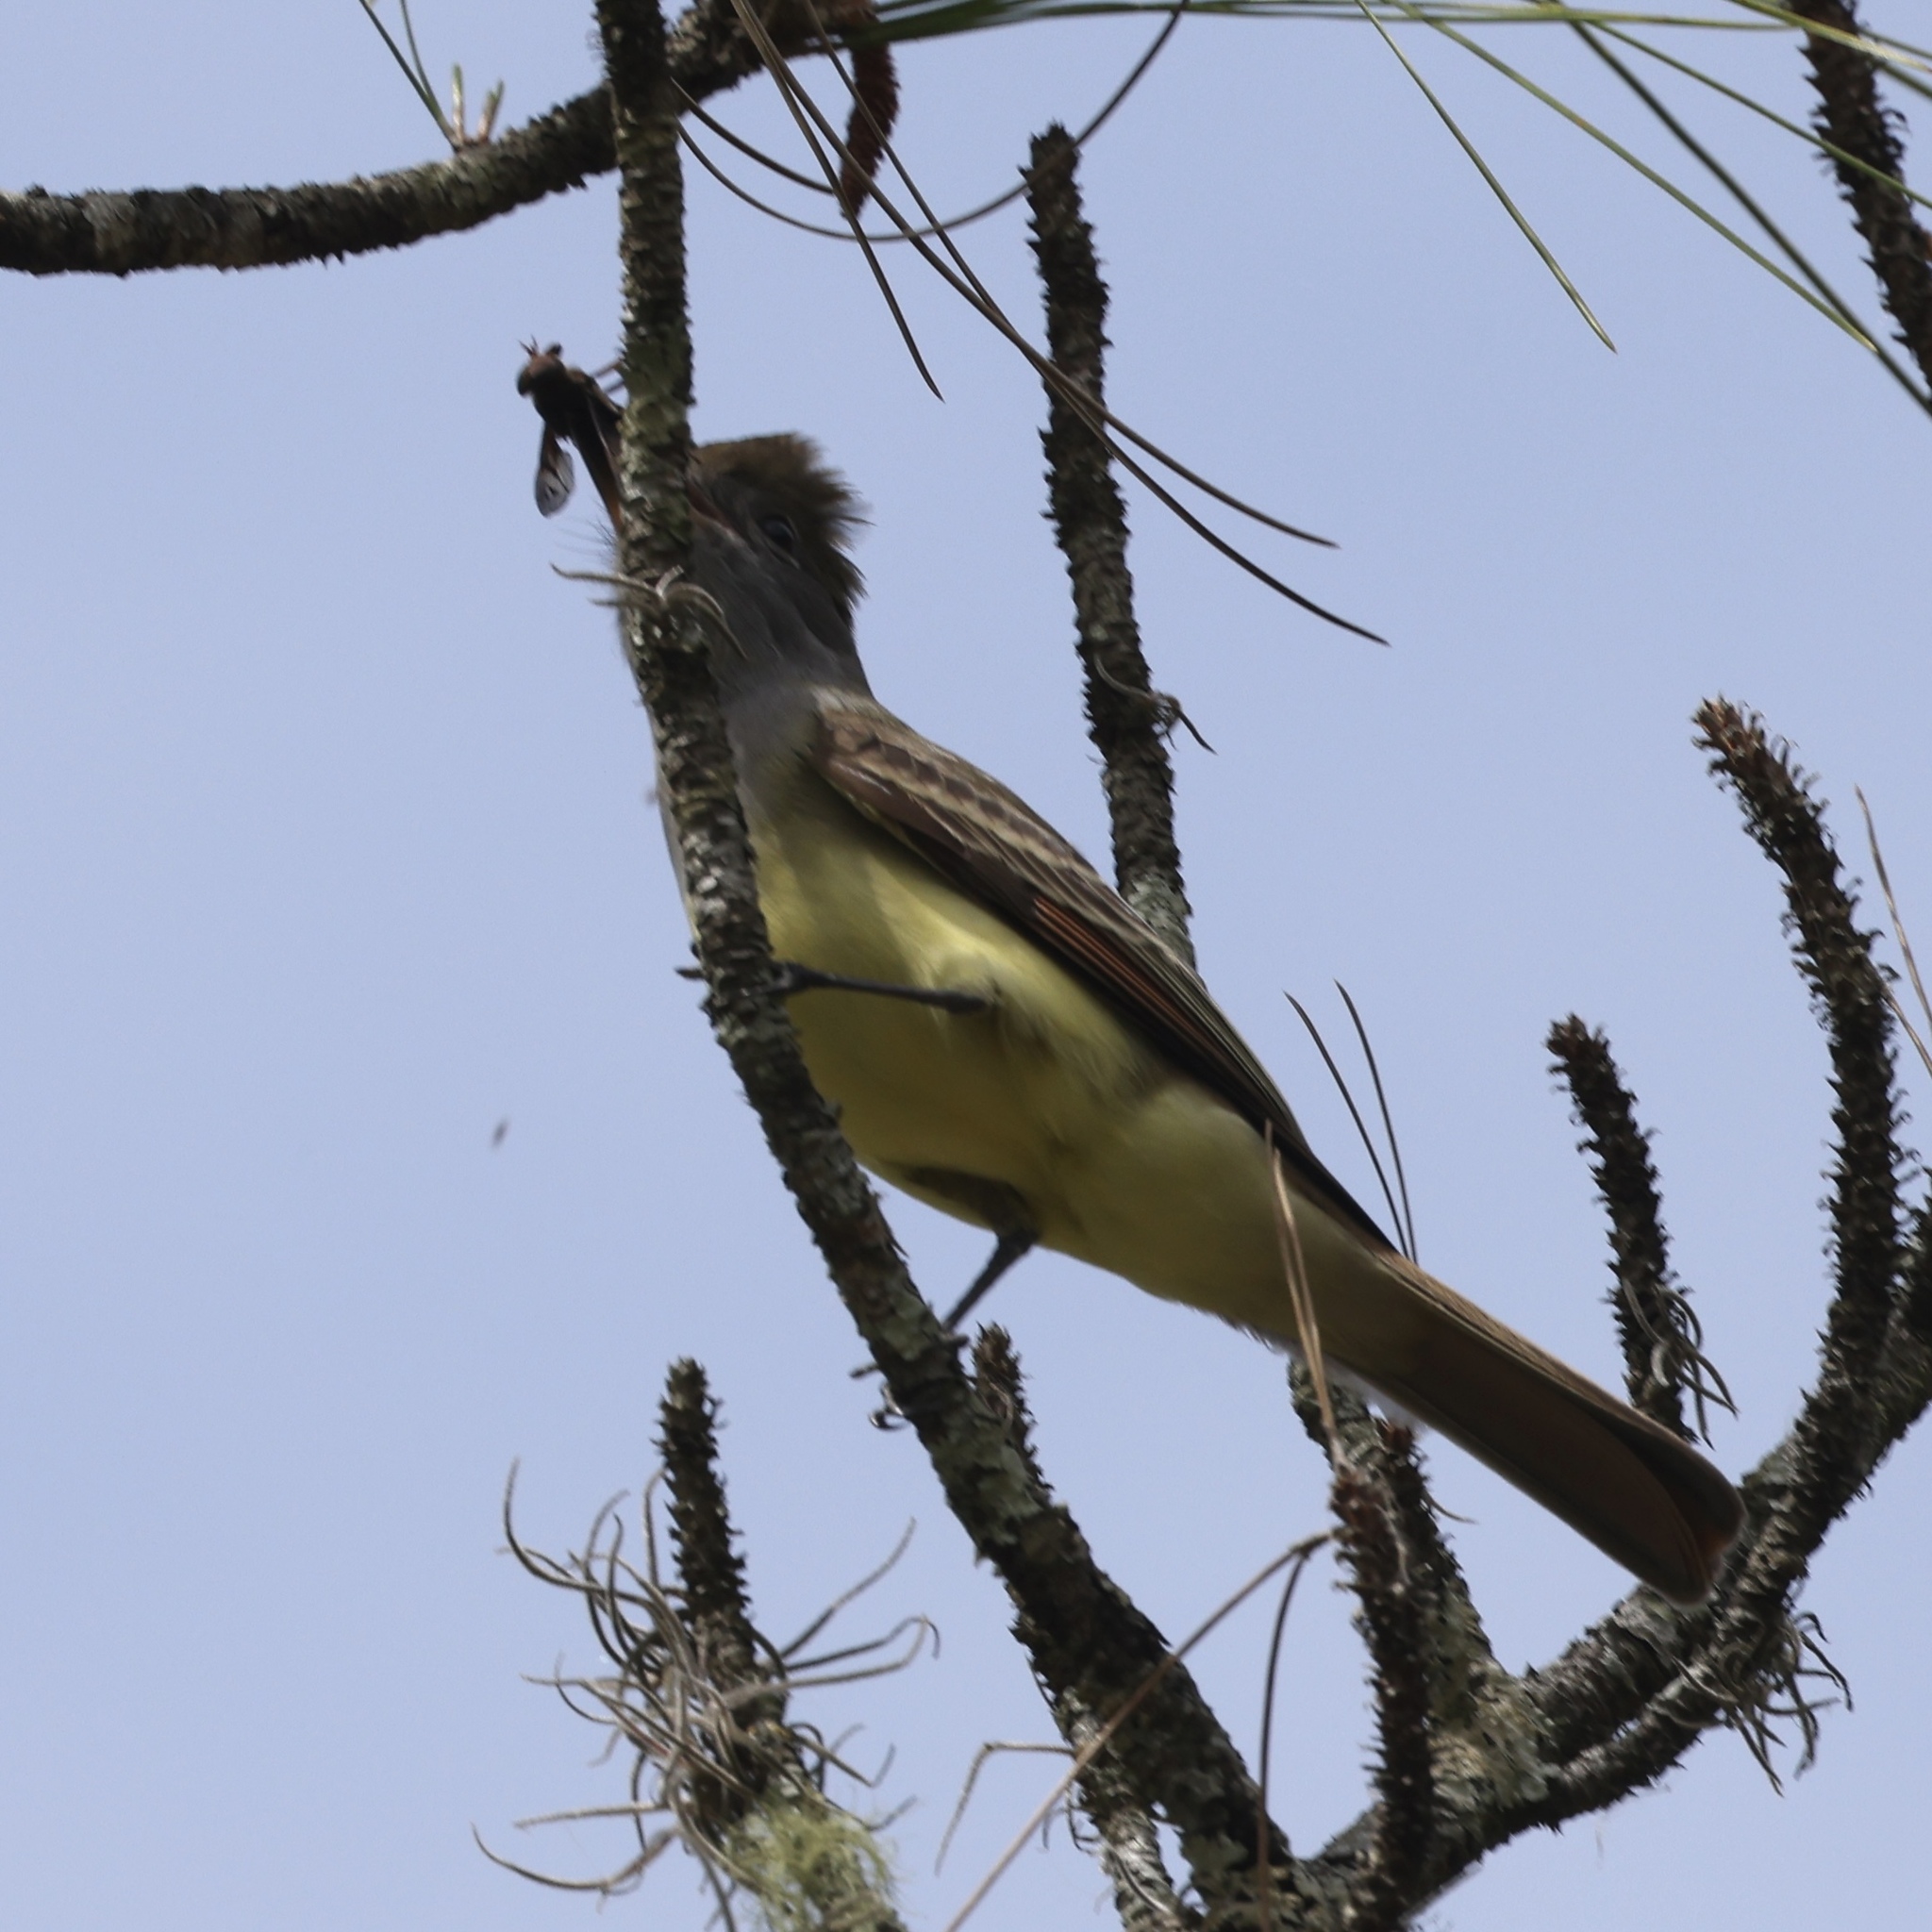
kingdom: Animalia
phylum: Chordata
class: Aves
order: Passeriformes
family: Tyrannidae
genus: Myiarchus
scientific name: Myiarchus crinitus
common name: Great crested flycatcher
